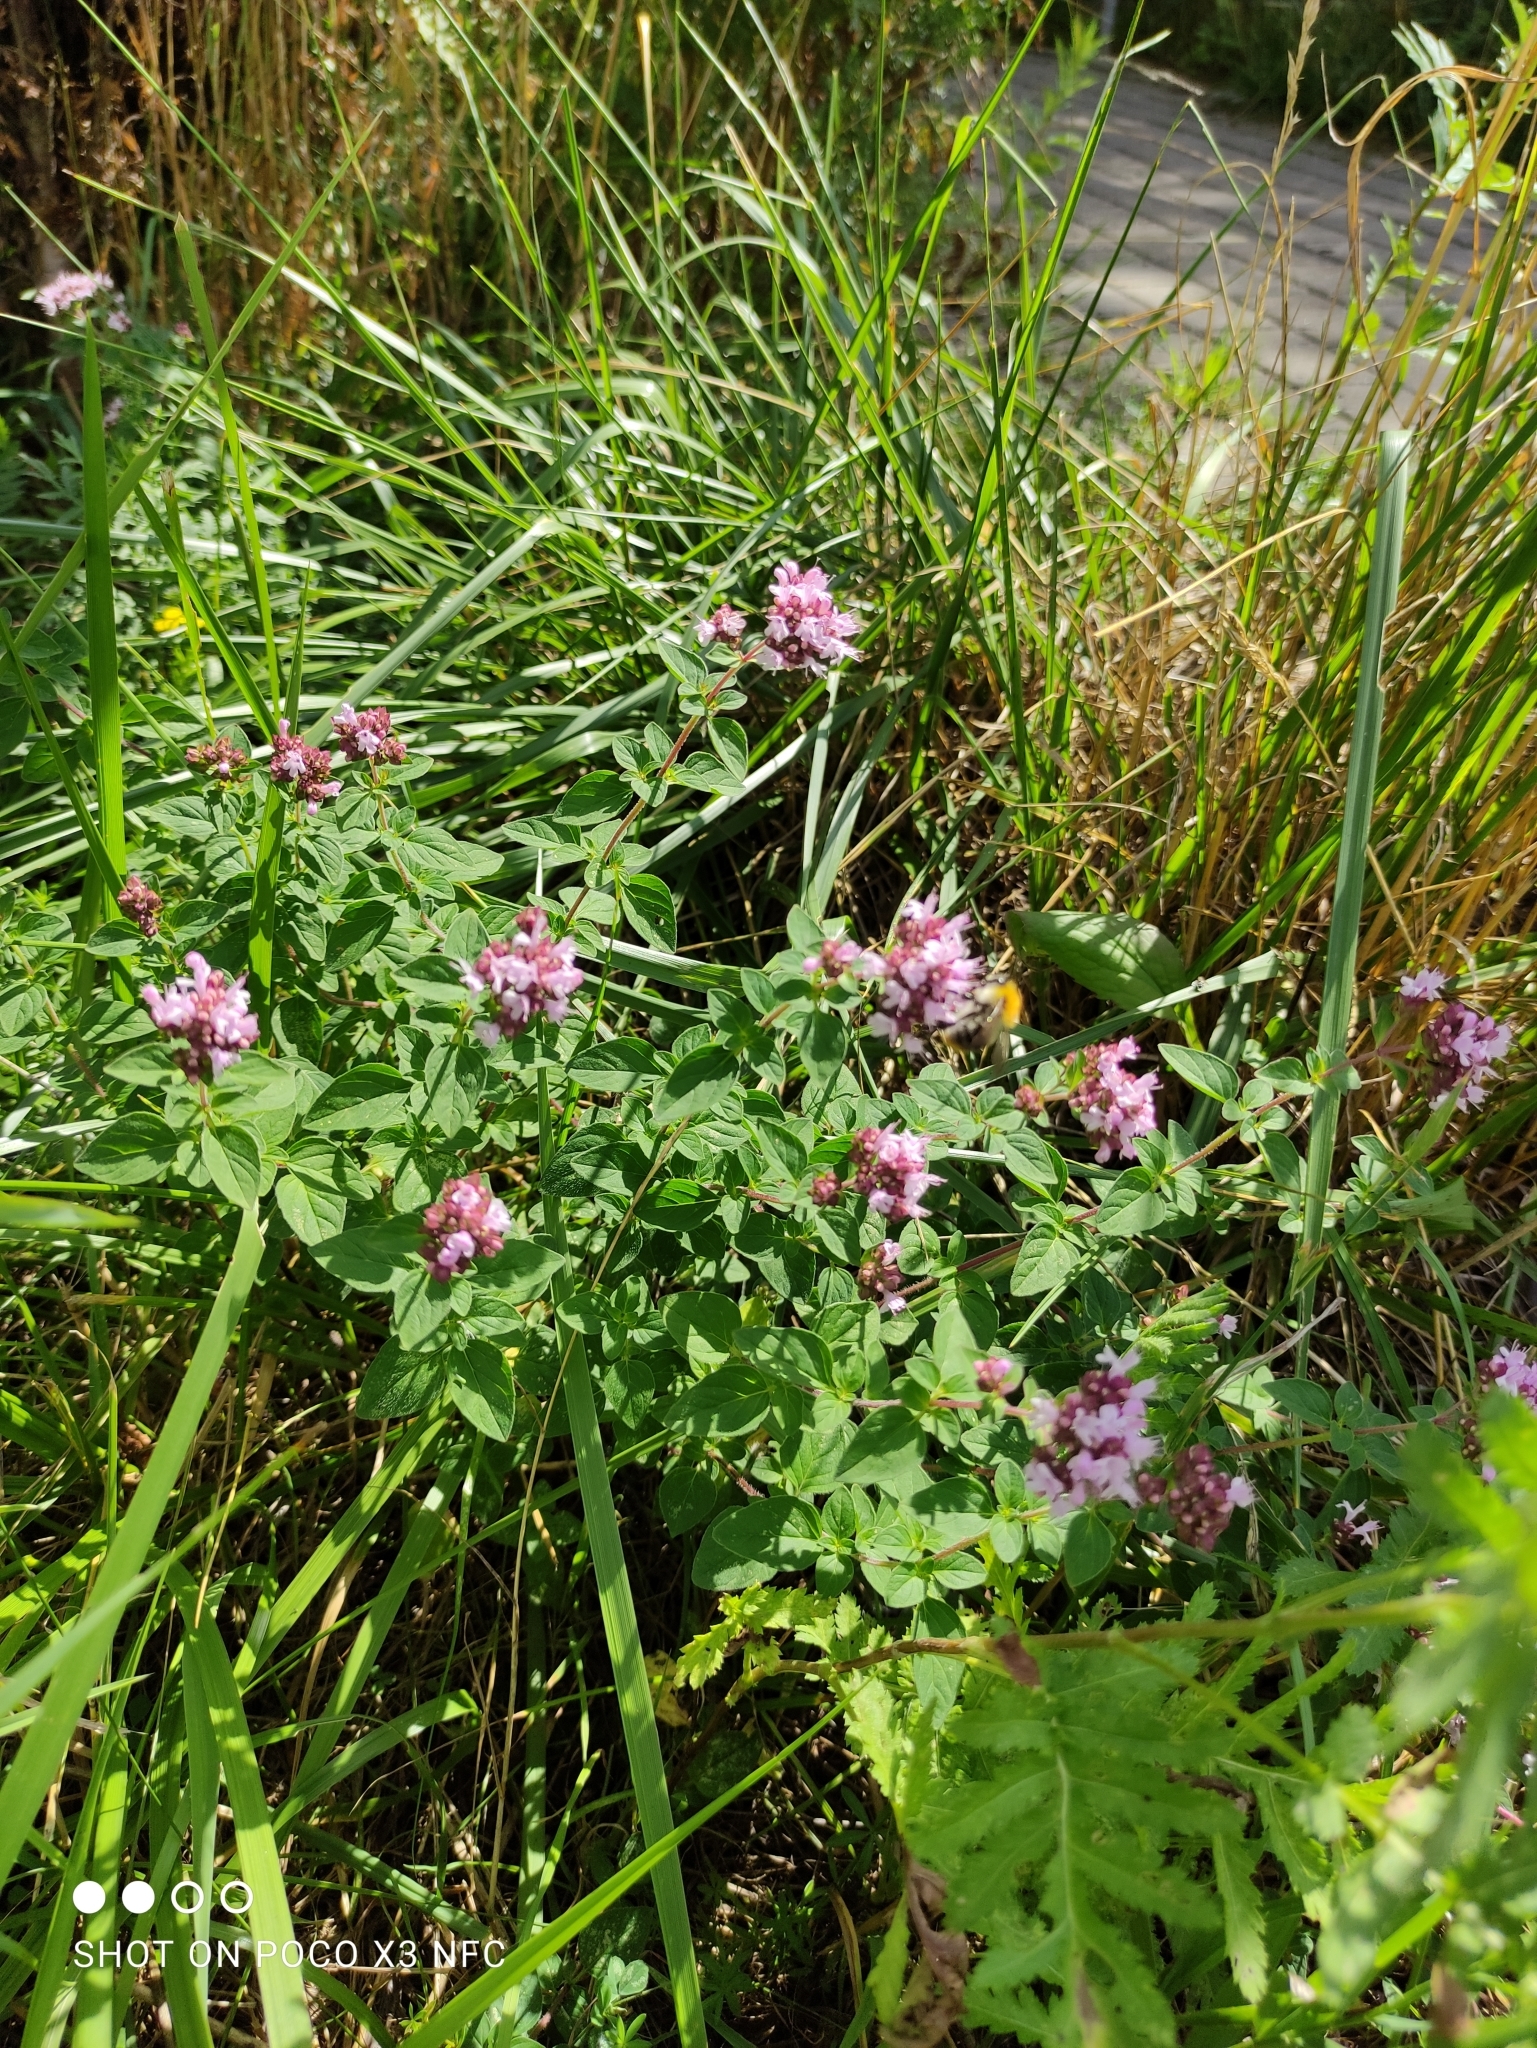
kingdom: Plantae
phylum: Tracheophyta
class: Magnoliopsida
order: Lamiales
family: Lamiaceae
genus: Origanum
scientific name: Origanum vulgare
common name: Wild marjoram
